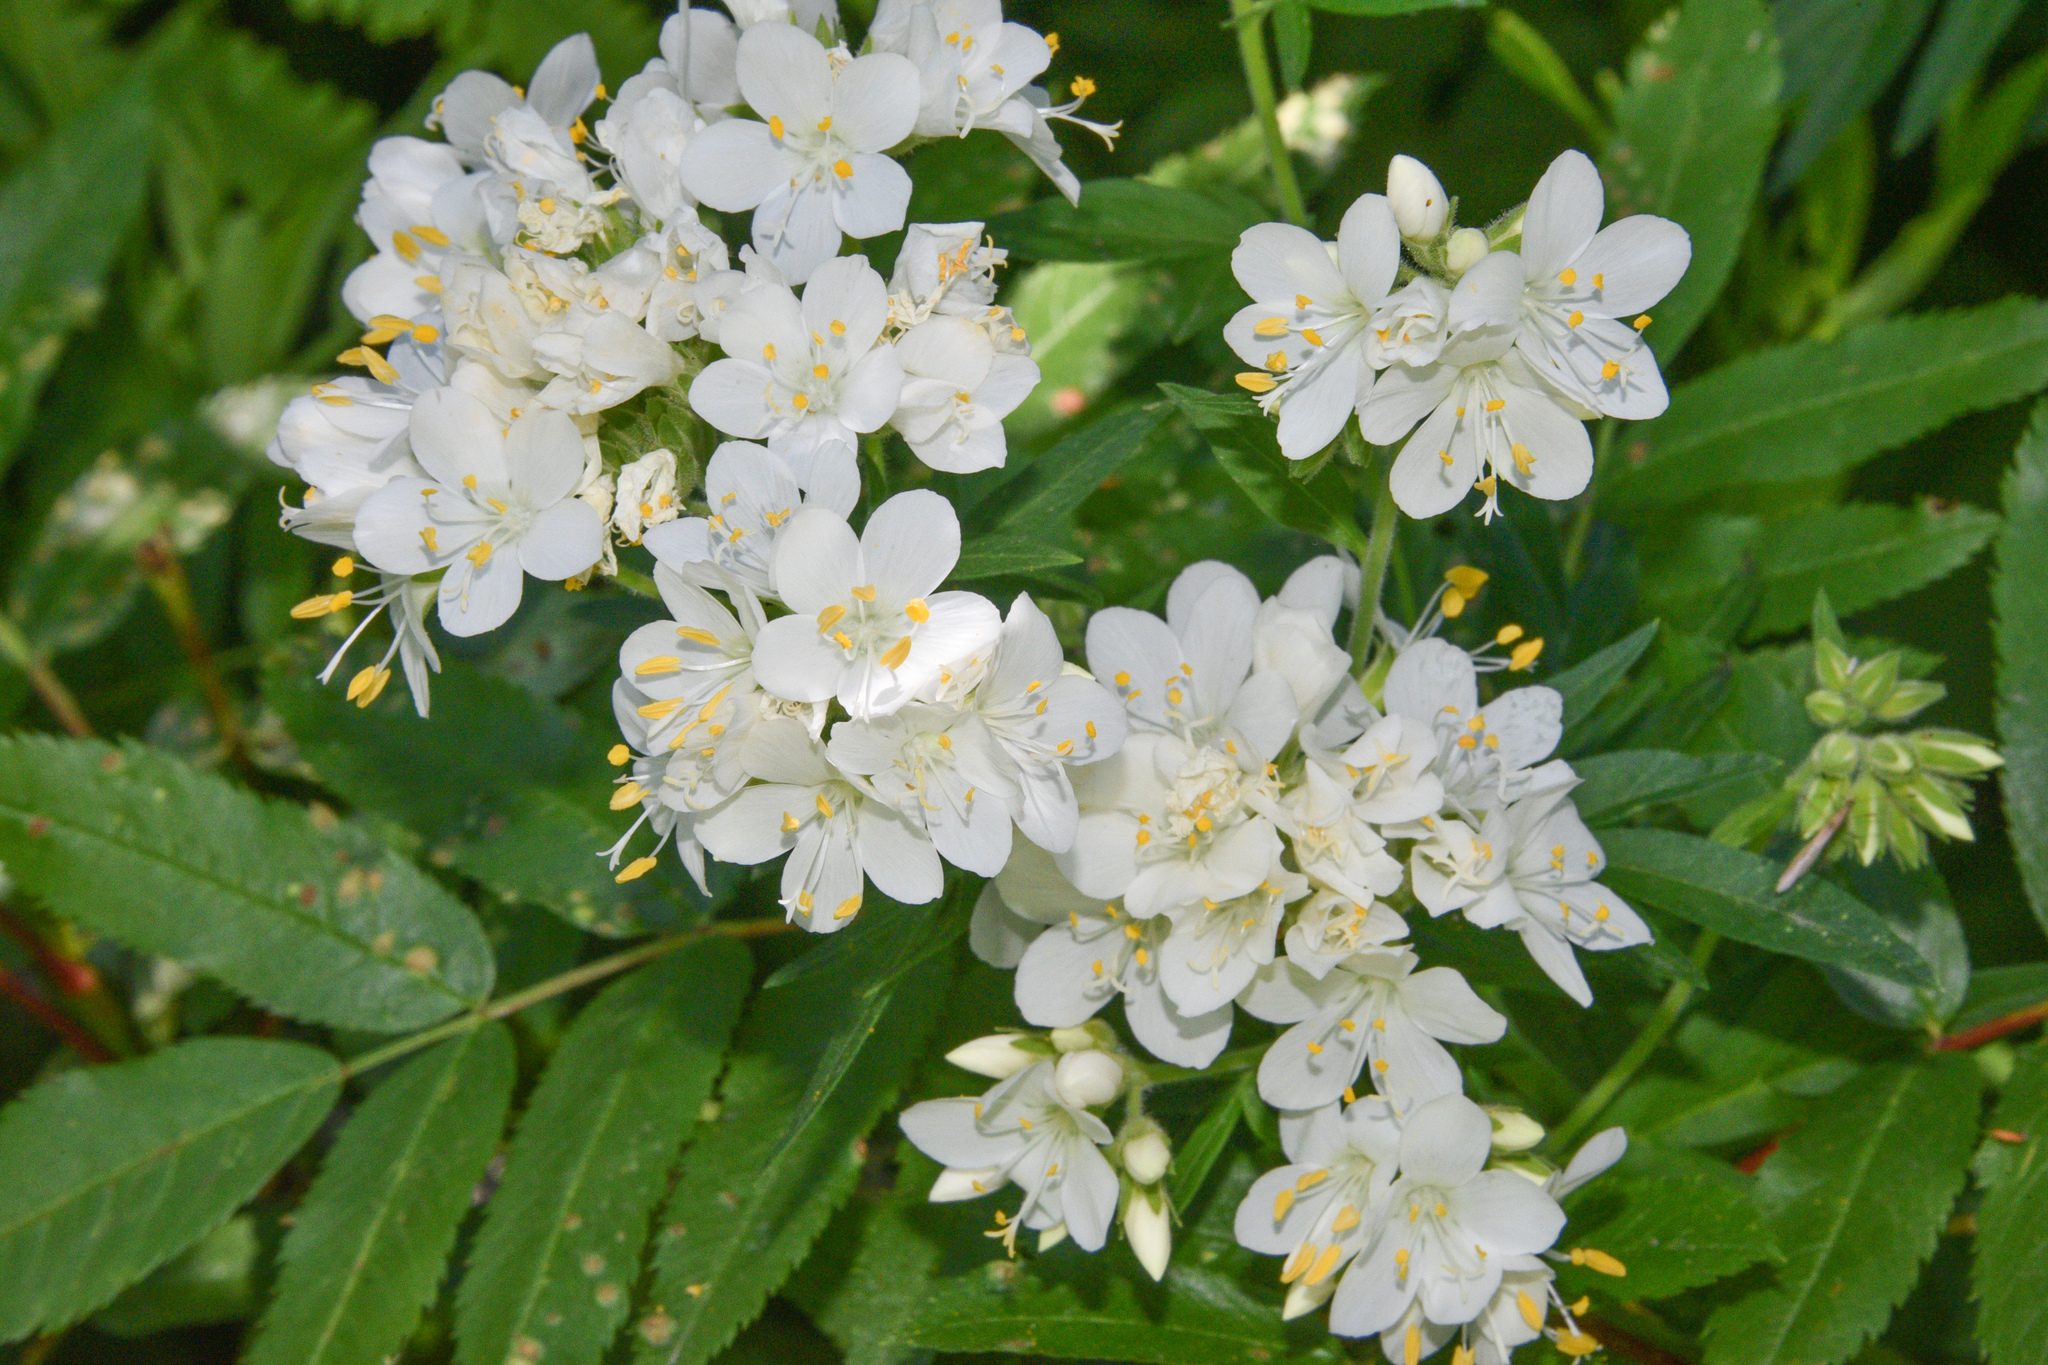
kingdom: Plantae
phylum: Tracheophyta
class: Magnoliopsida
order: Rosales
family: Rosaceae
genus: Sorbus
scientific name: Sorbus aucuparia
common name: Rowan
